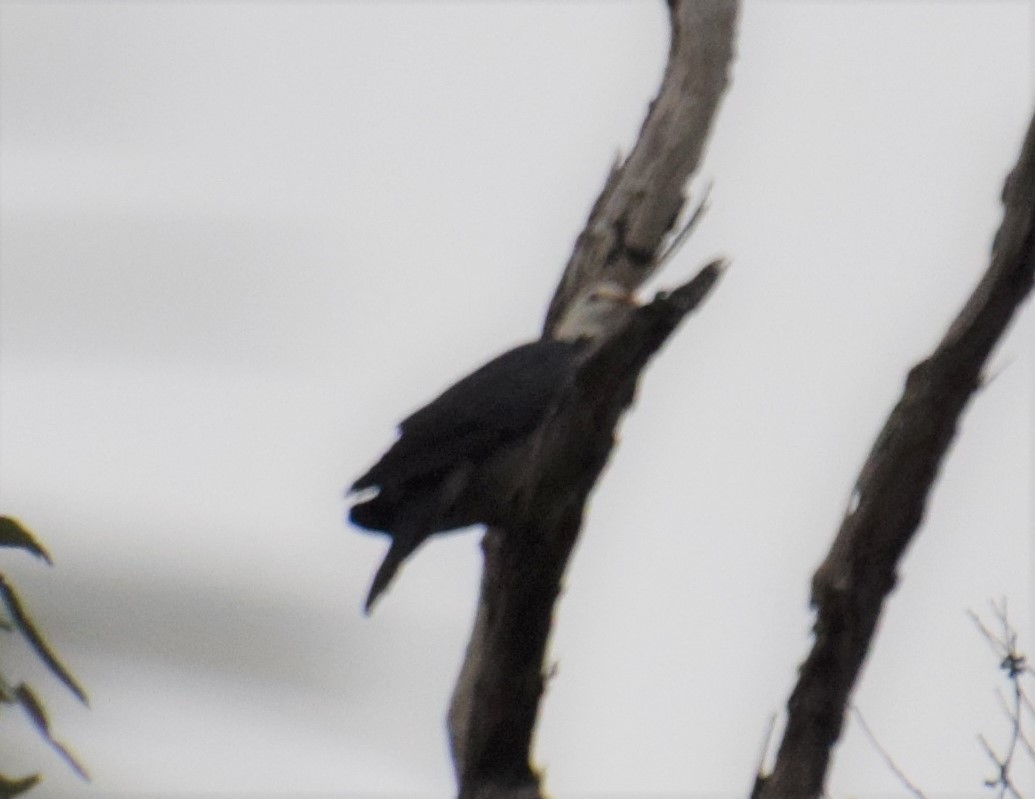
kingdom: Animalia
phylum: Chordata
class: Aves
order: Columbiformes
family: Columbidae
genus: Columba
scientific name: Columba leucomela
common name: White-headed pigeon
